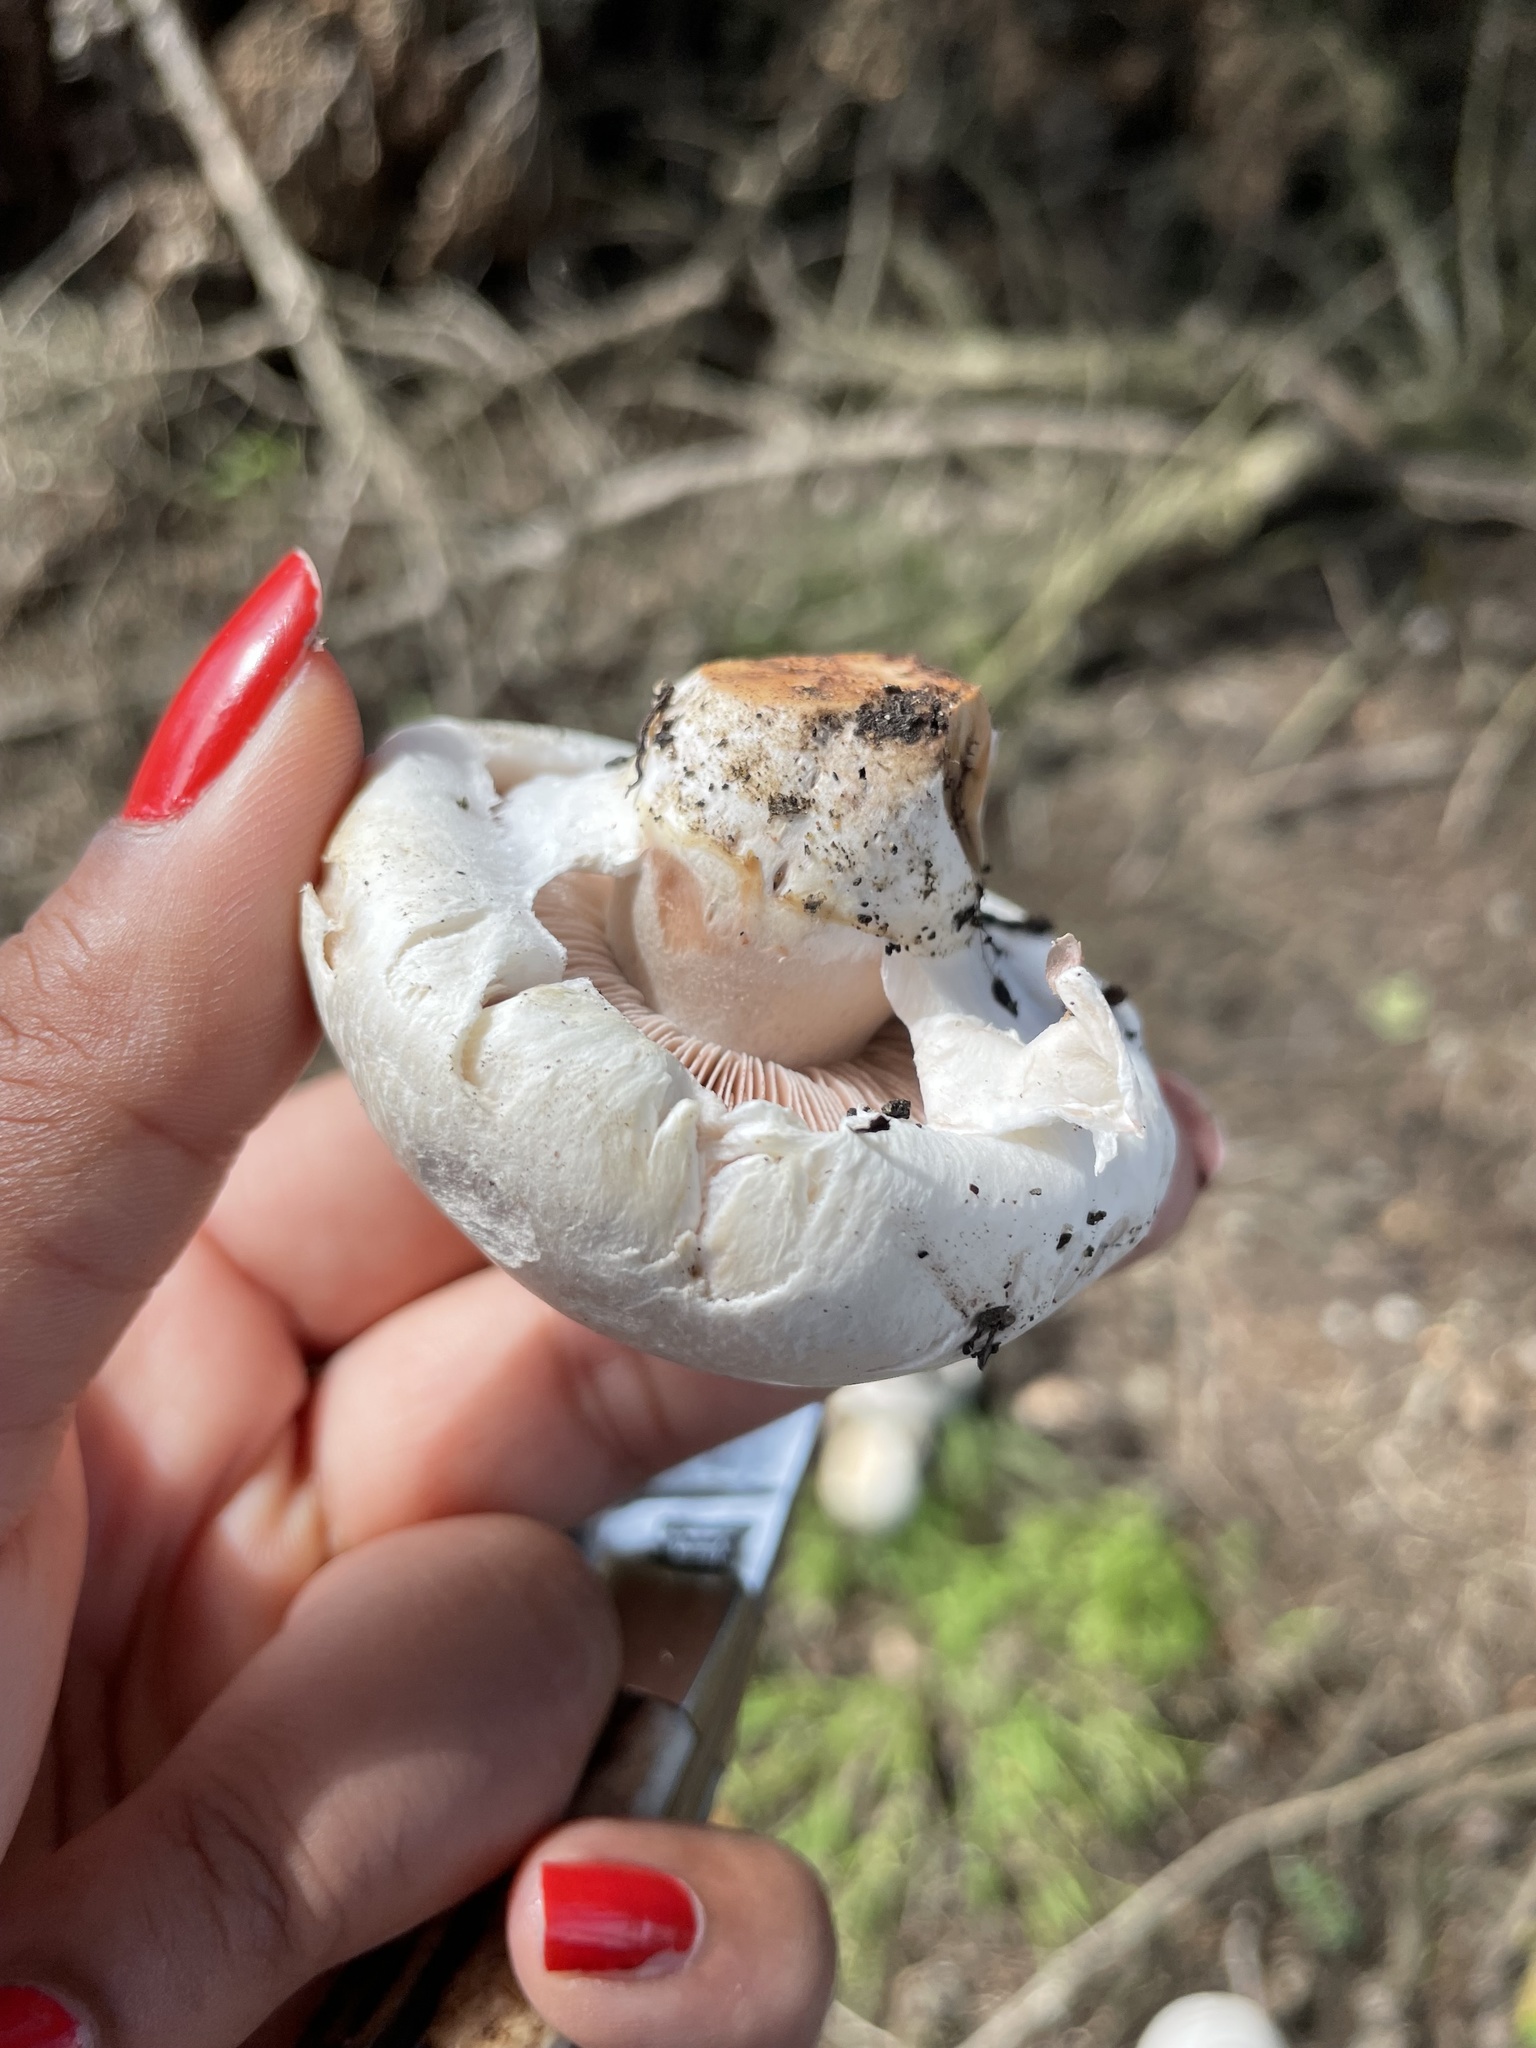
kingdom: Fungi
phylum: Basidiomycota
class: Agaricomycetes
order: Agaricales
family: Agaricaceae
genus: Agaricus
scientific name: Agaricus bernardii
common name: Salty mushroom
